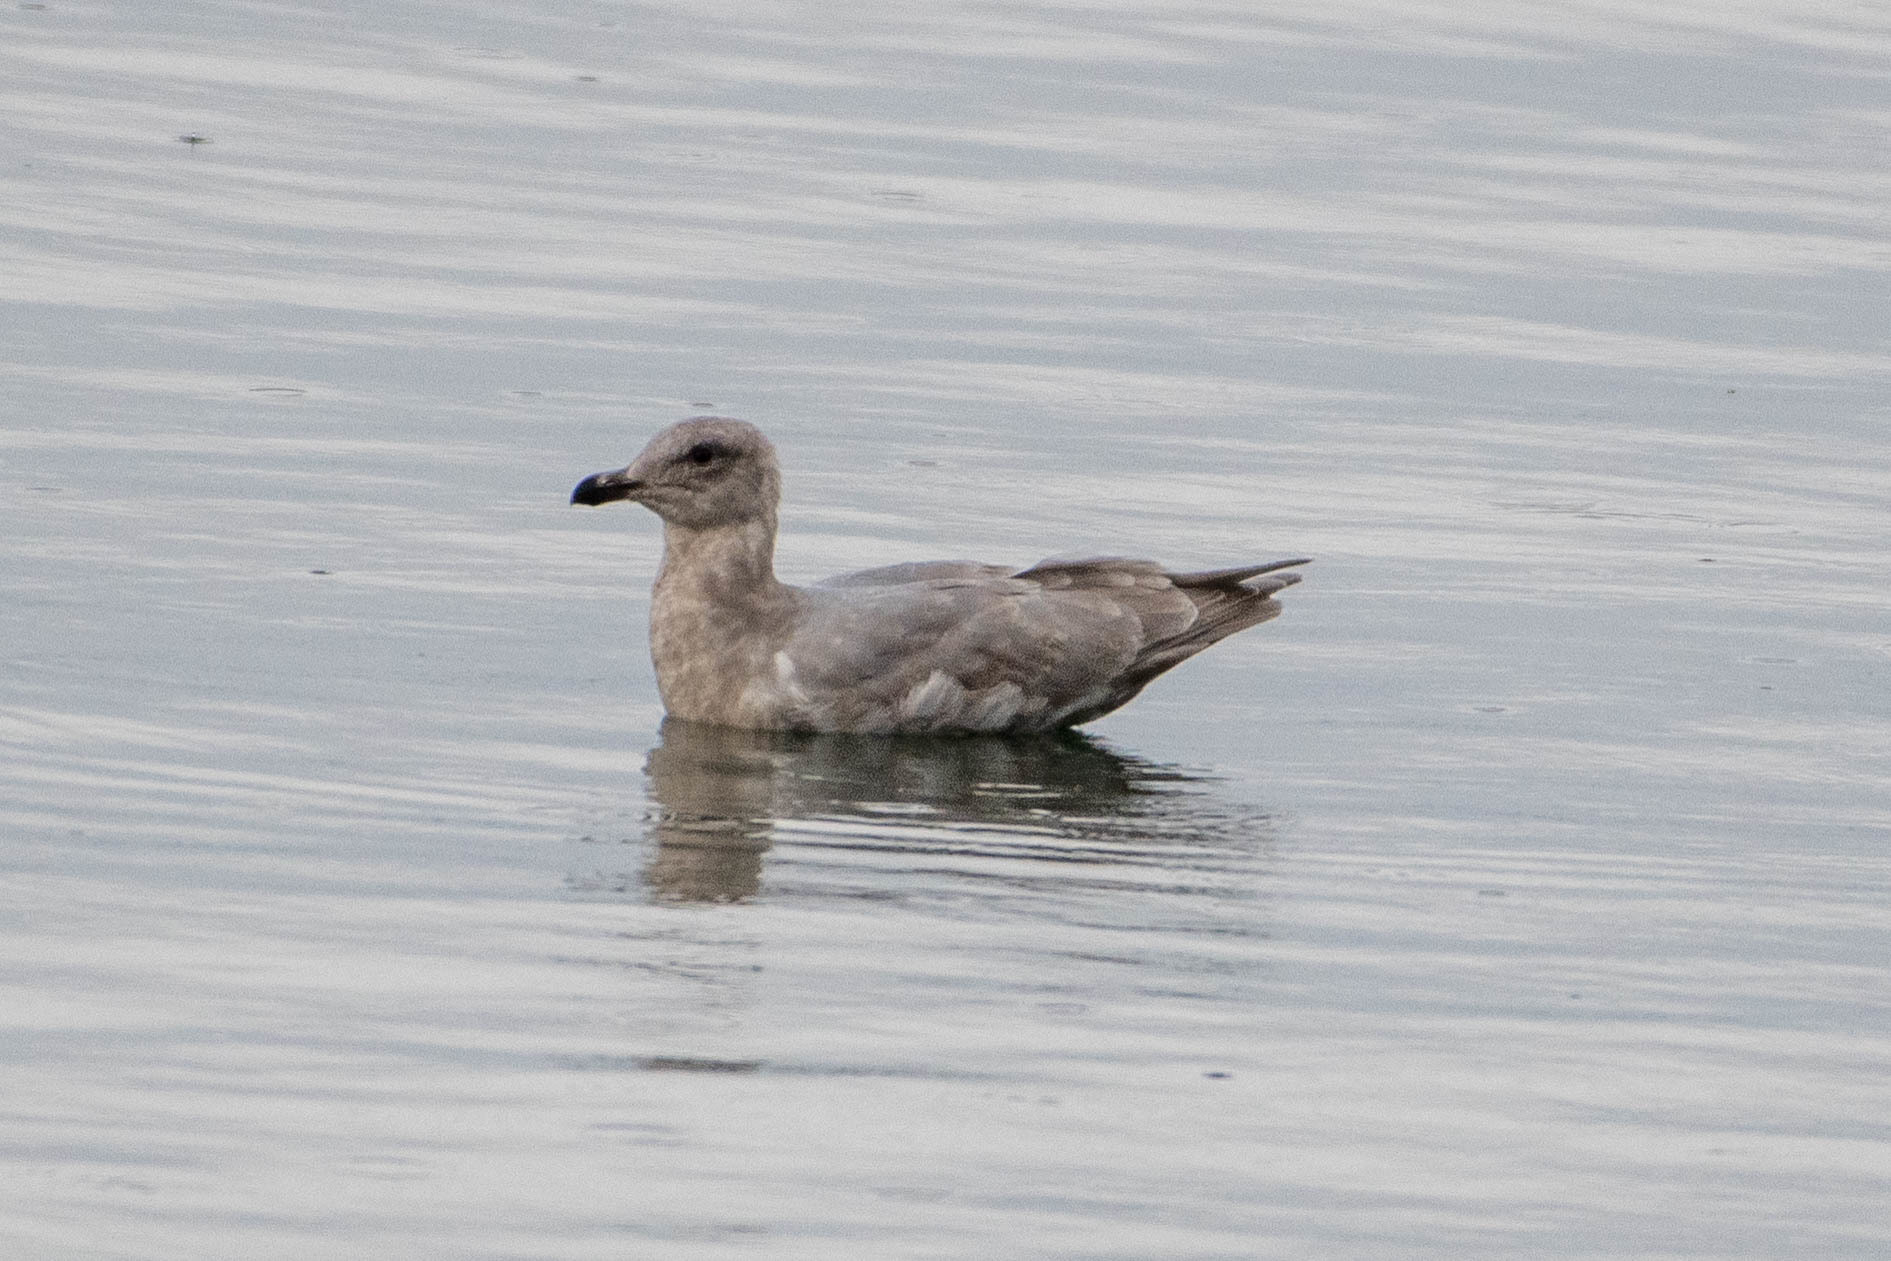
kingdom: Animalia
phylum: Chordata
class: Aves
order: Charadriiformes
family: Laridae
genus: Larus
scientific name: Larus glaucescens
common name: Glaucous-winged gull
